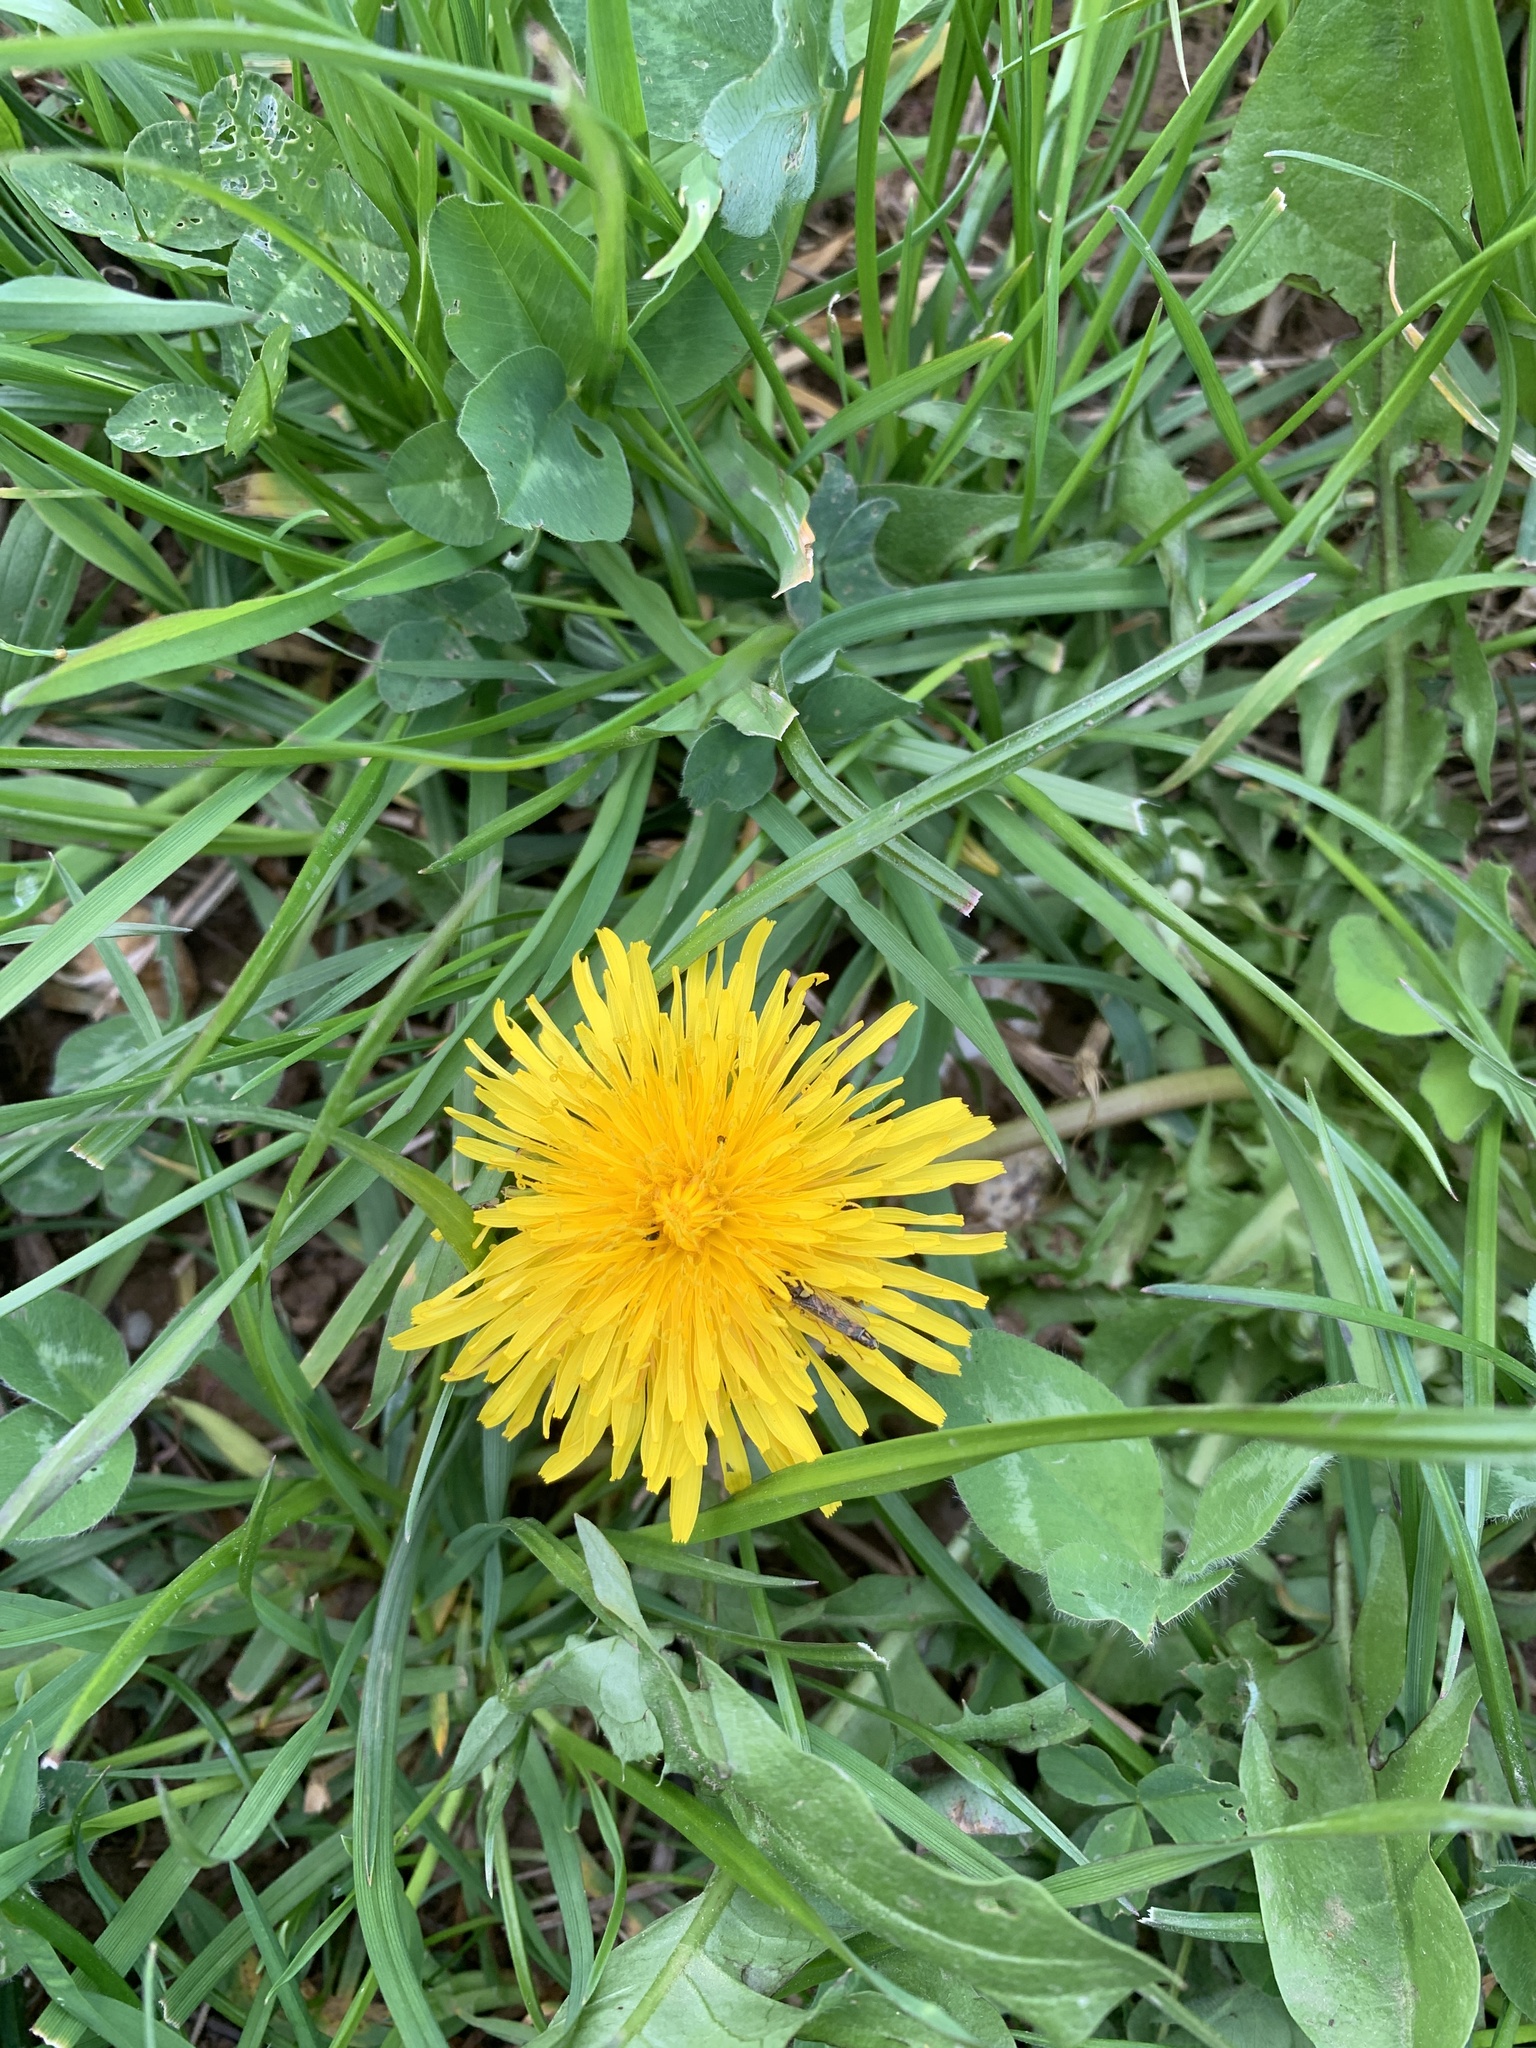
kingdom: Plantae
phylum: Tracheophyta
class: Magnoliopsida
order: Asterales
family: Asteraceae
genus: Taraxacum
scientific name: Taraxacum officinale
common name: Common dandelion
